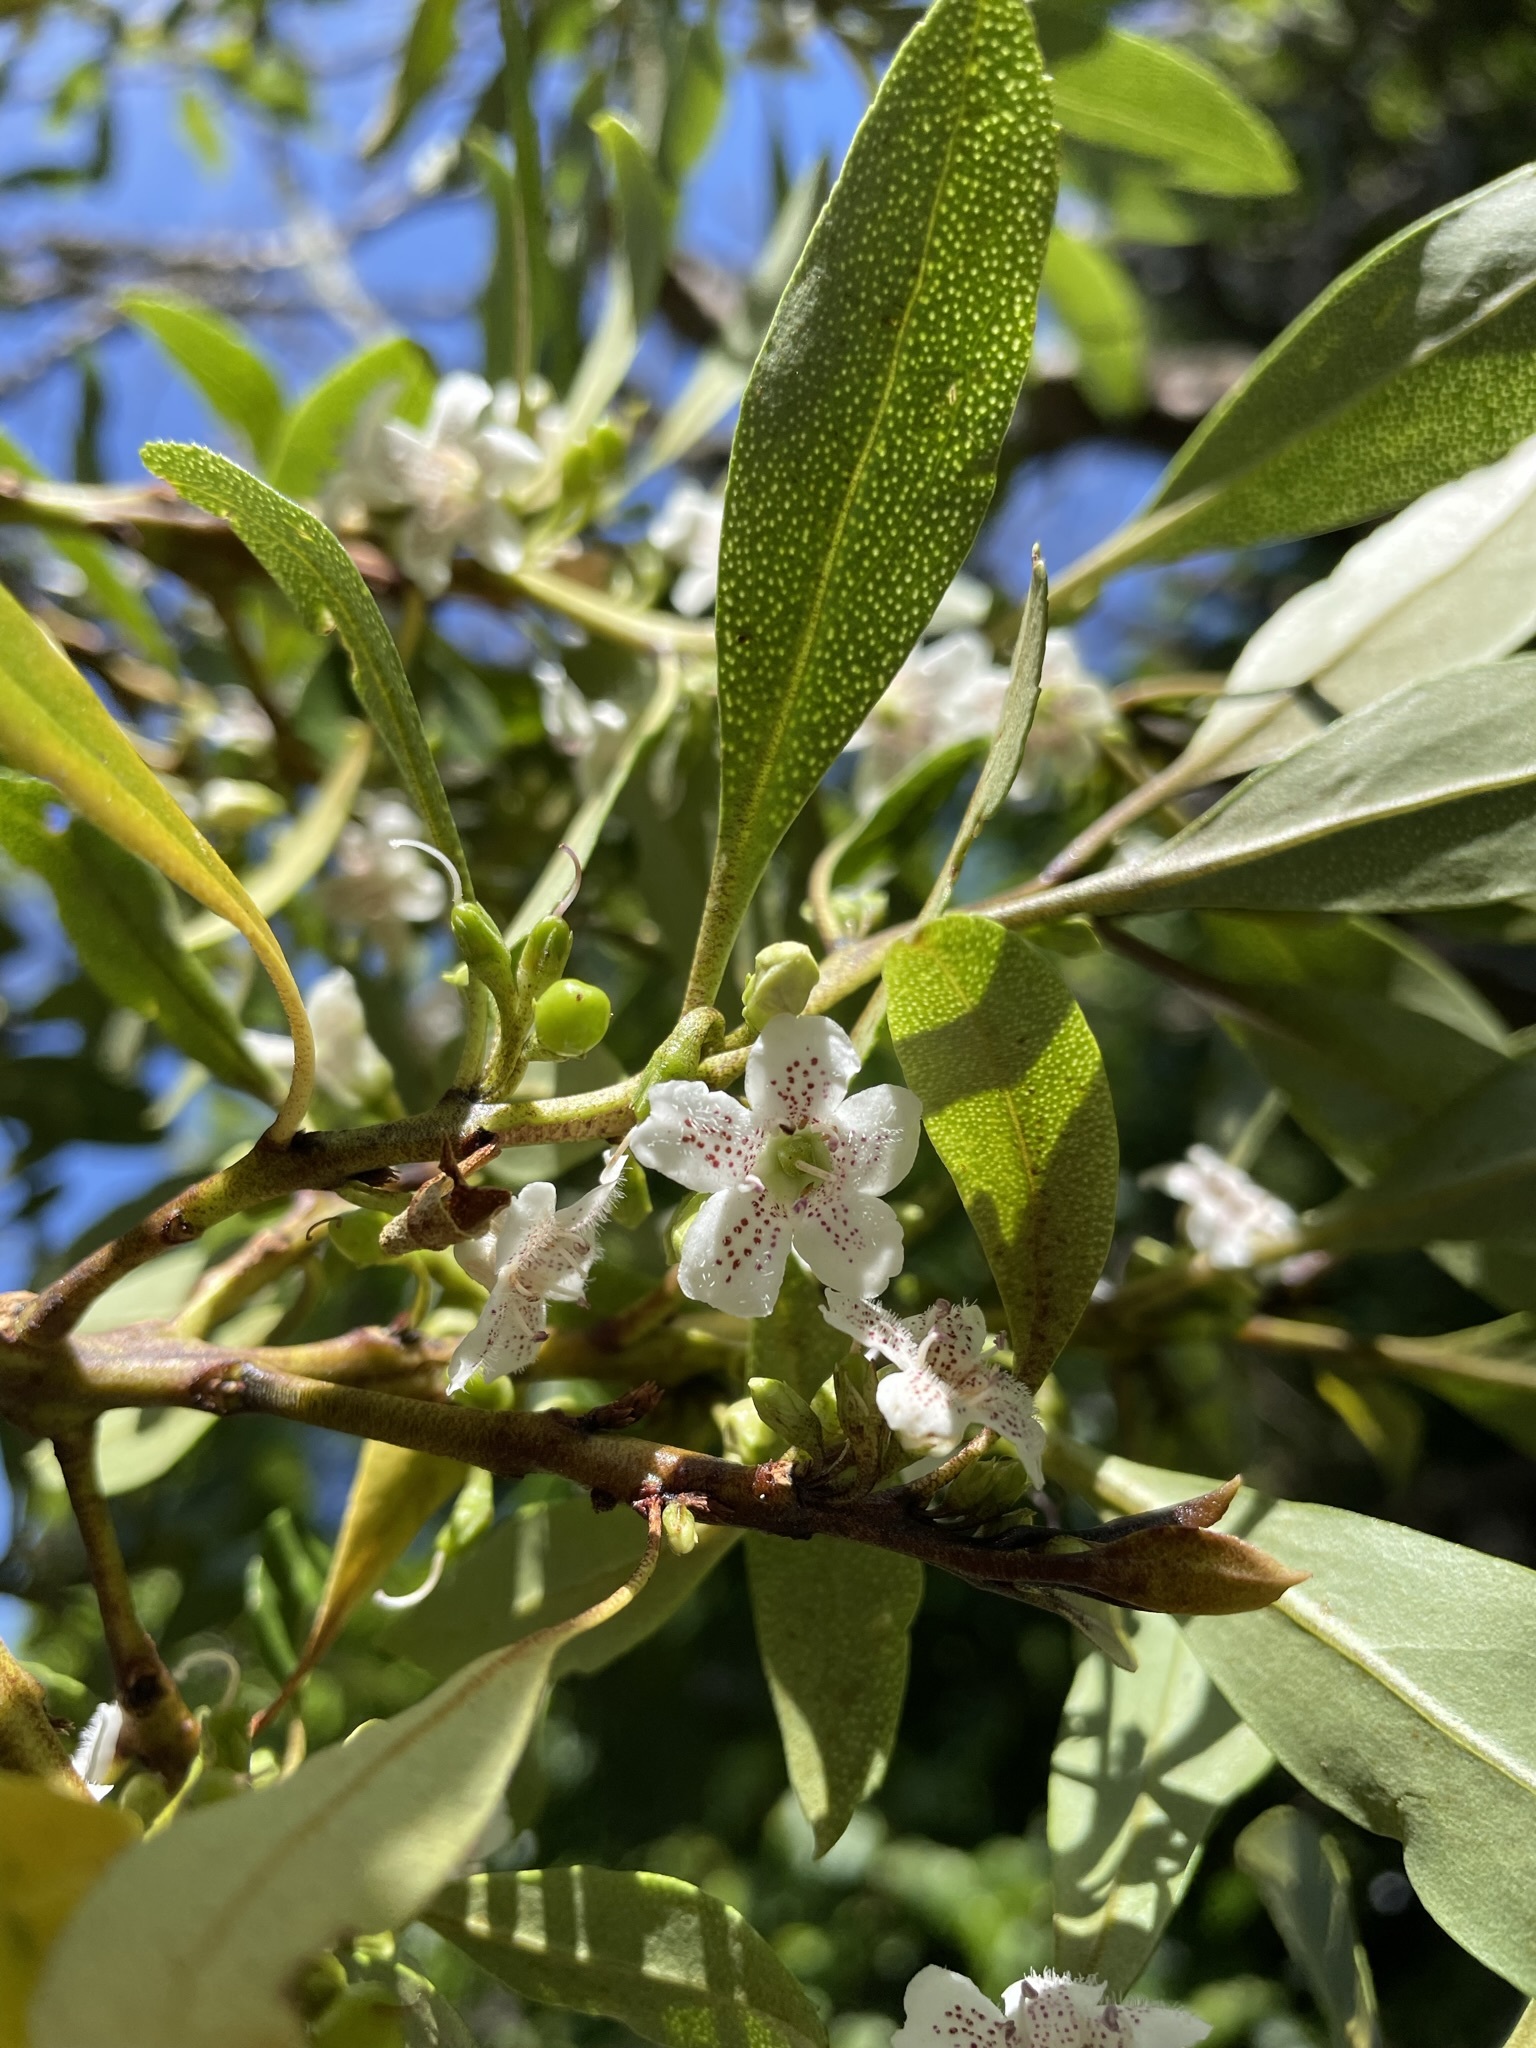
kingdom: Plantae
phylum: Tracheophyta
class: Magnoliopsida
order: Lamiales
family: Scrophulariaceae
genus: Myoporum
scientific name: Myoporum laetum
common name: Ngaio tree
